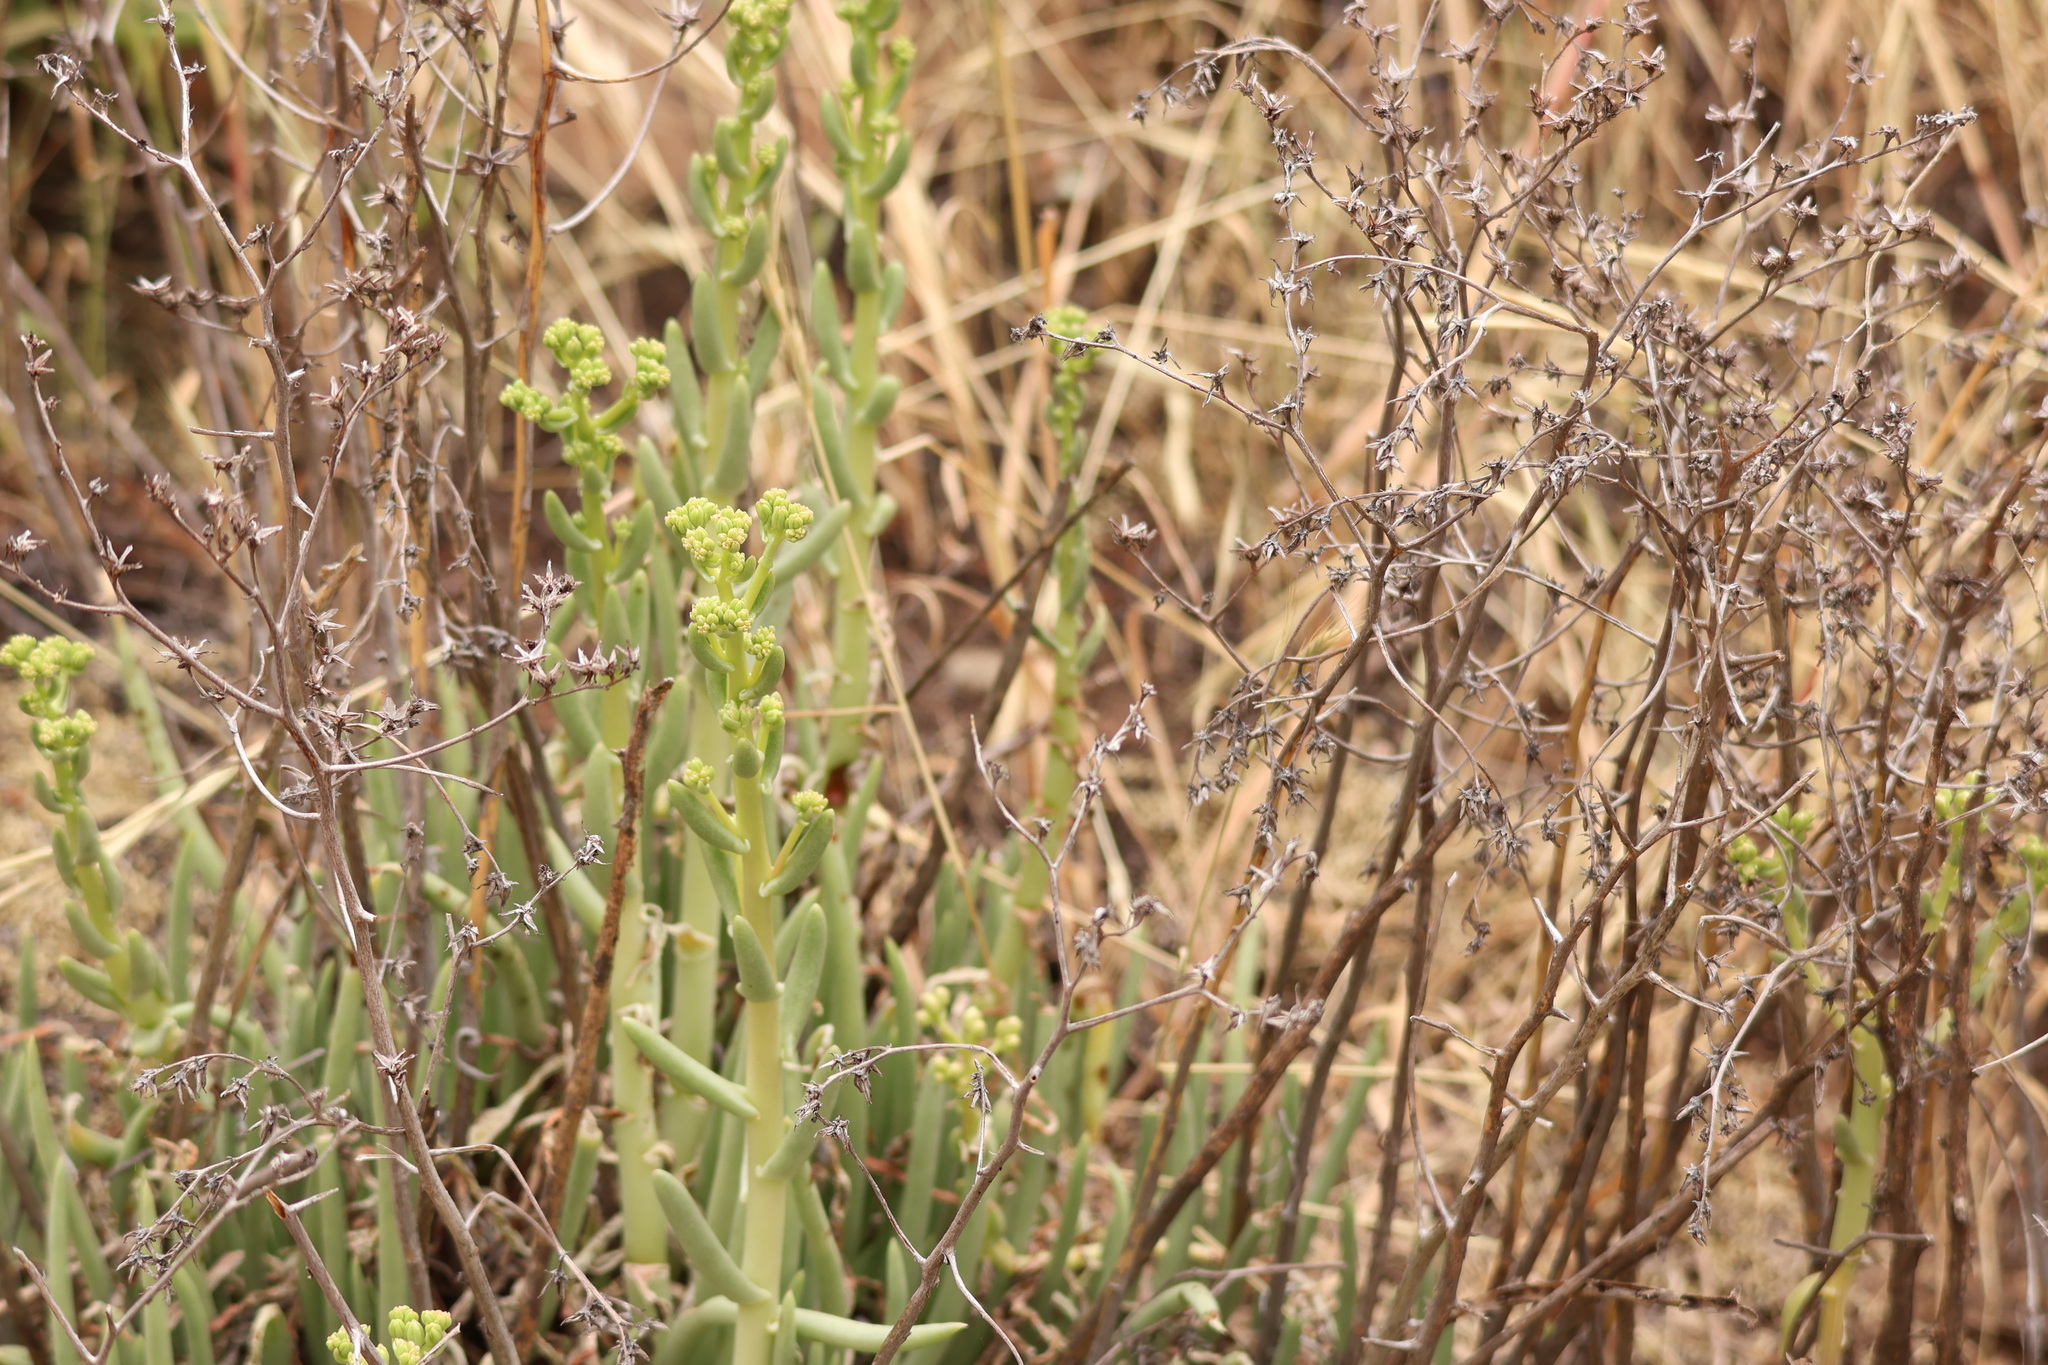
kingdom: Plantae
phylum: Tracheophyta
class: Magnoliopsida
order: Saxifragales
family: Crassulaceae
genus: Dudleya
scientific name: Dudleya edulis
